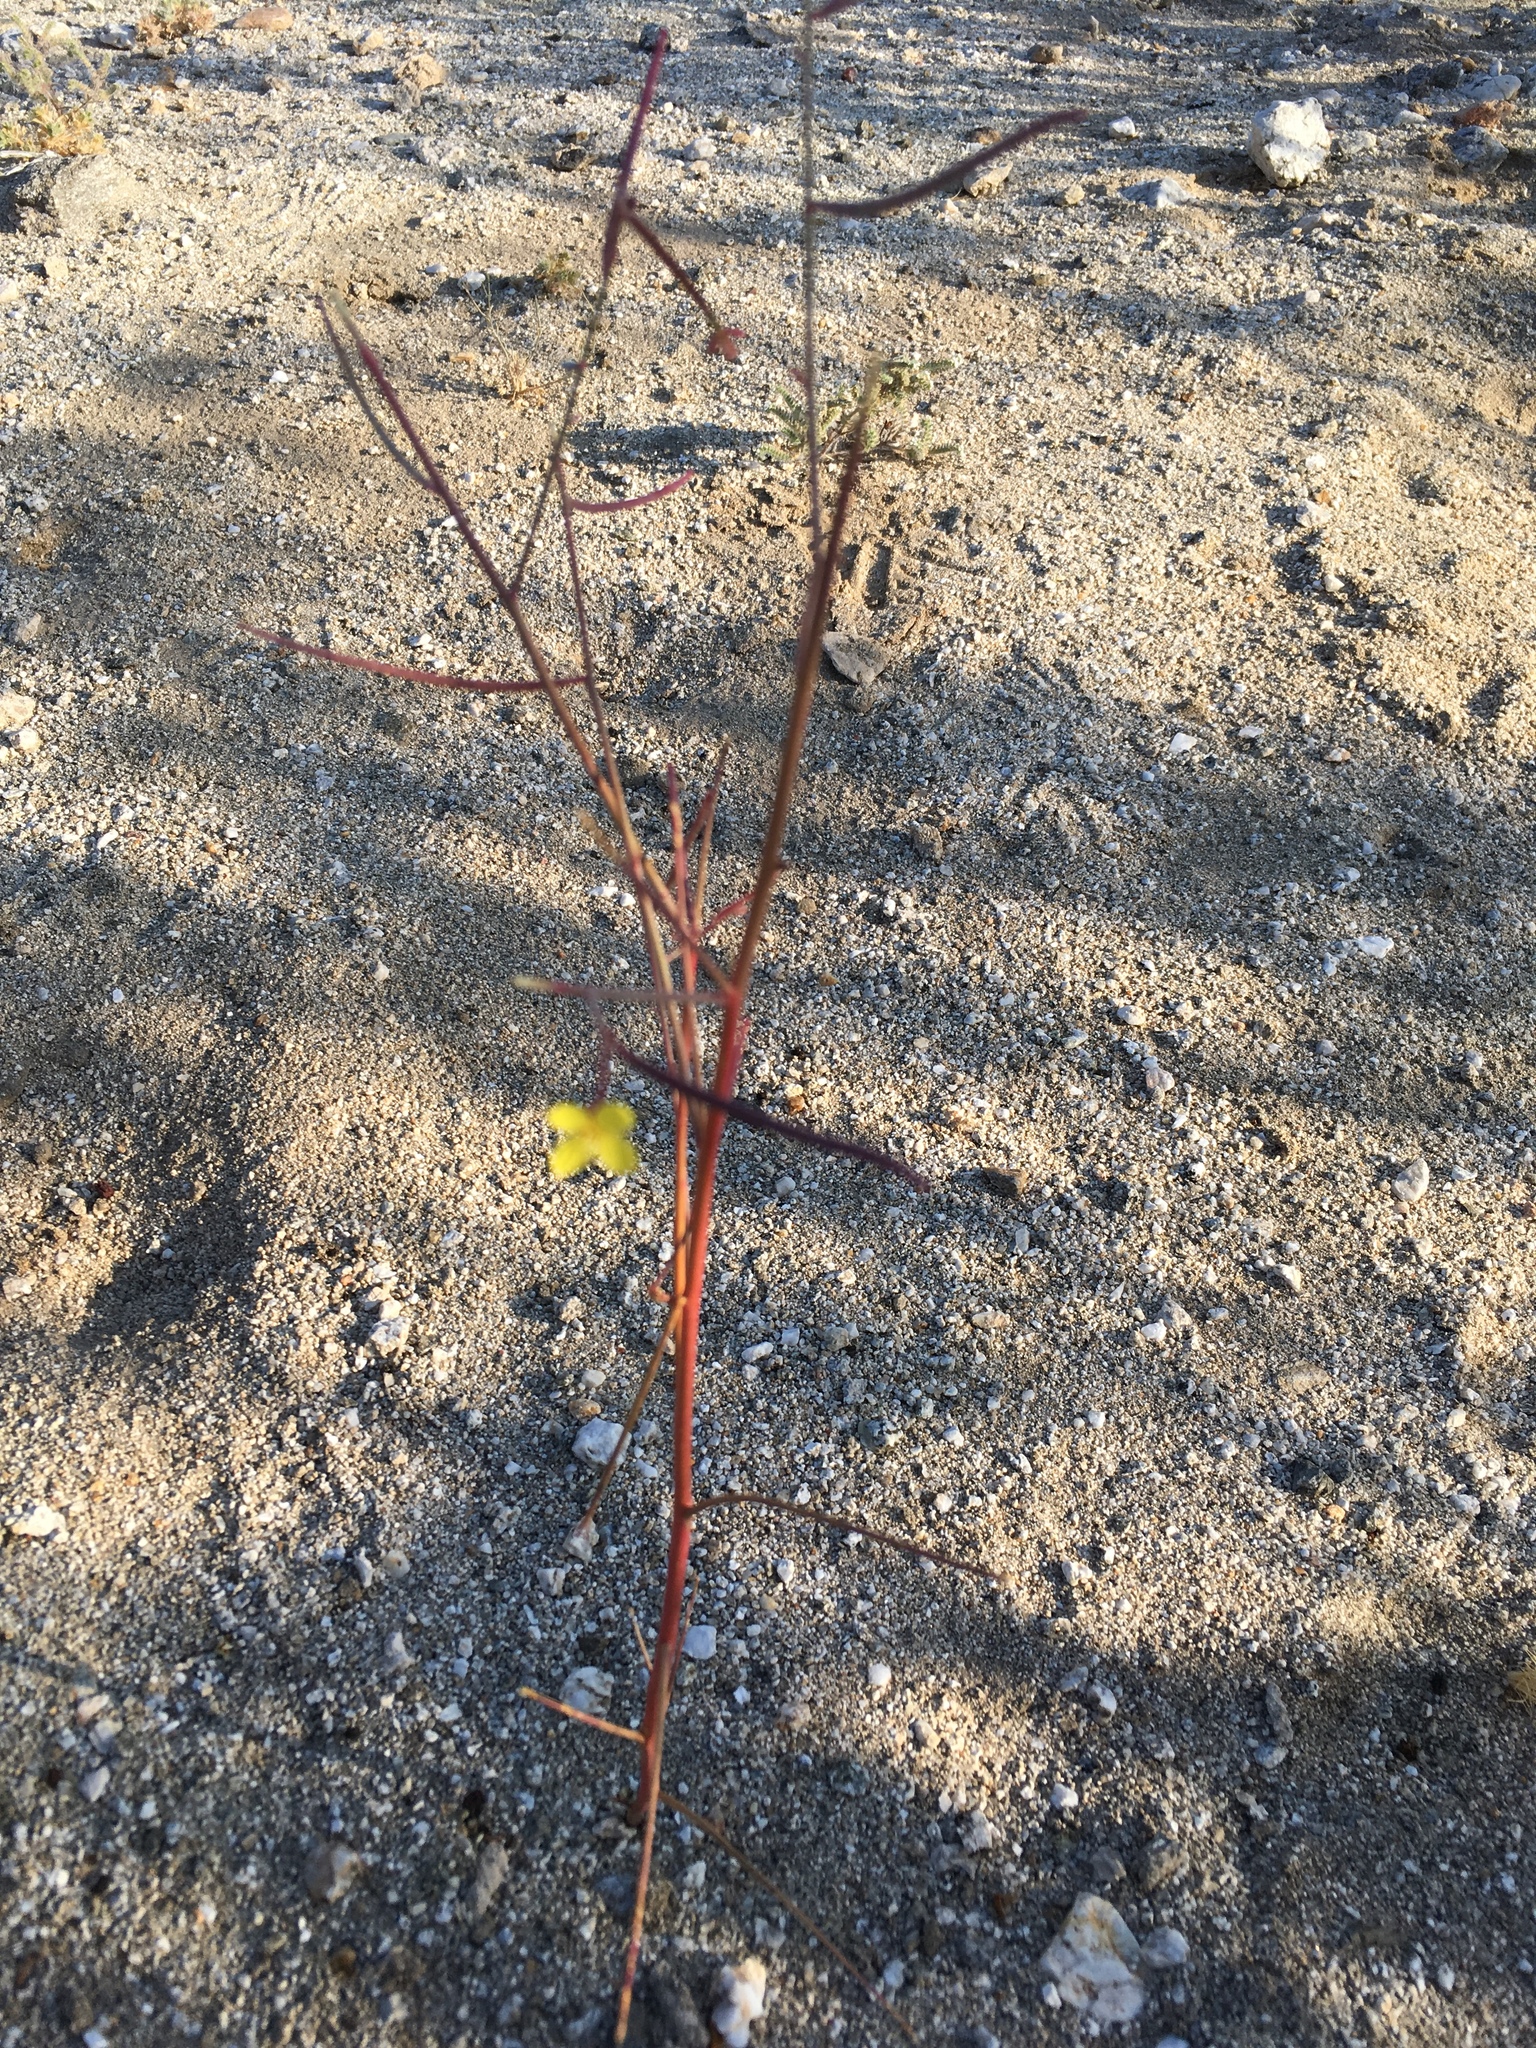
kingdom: Plantae
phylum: Tracheophyta
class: Magnoliopsida
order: Myrtales
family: Onagraceae
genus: Eulobus
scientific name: Eulobus californicus
